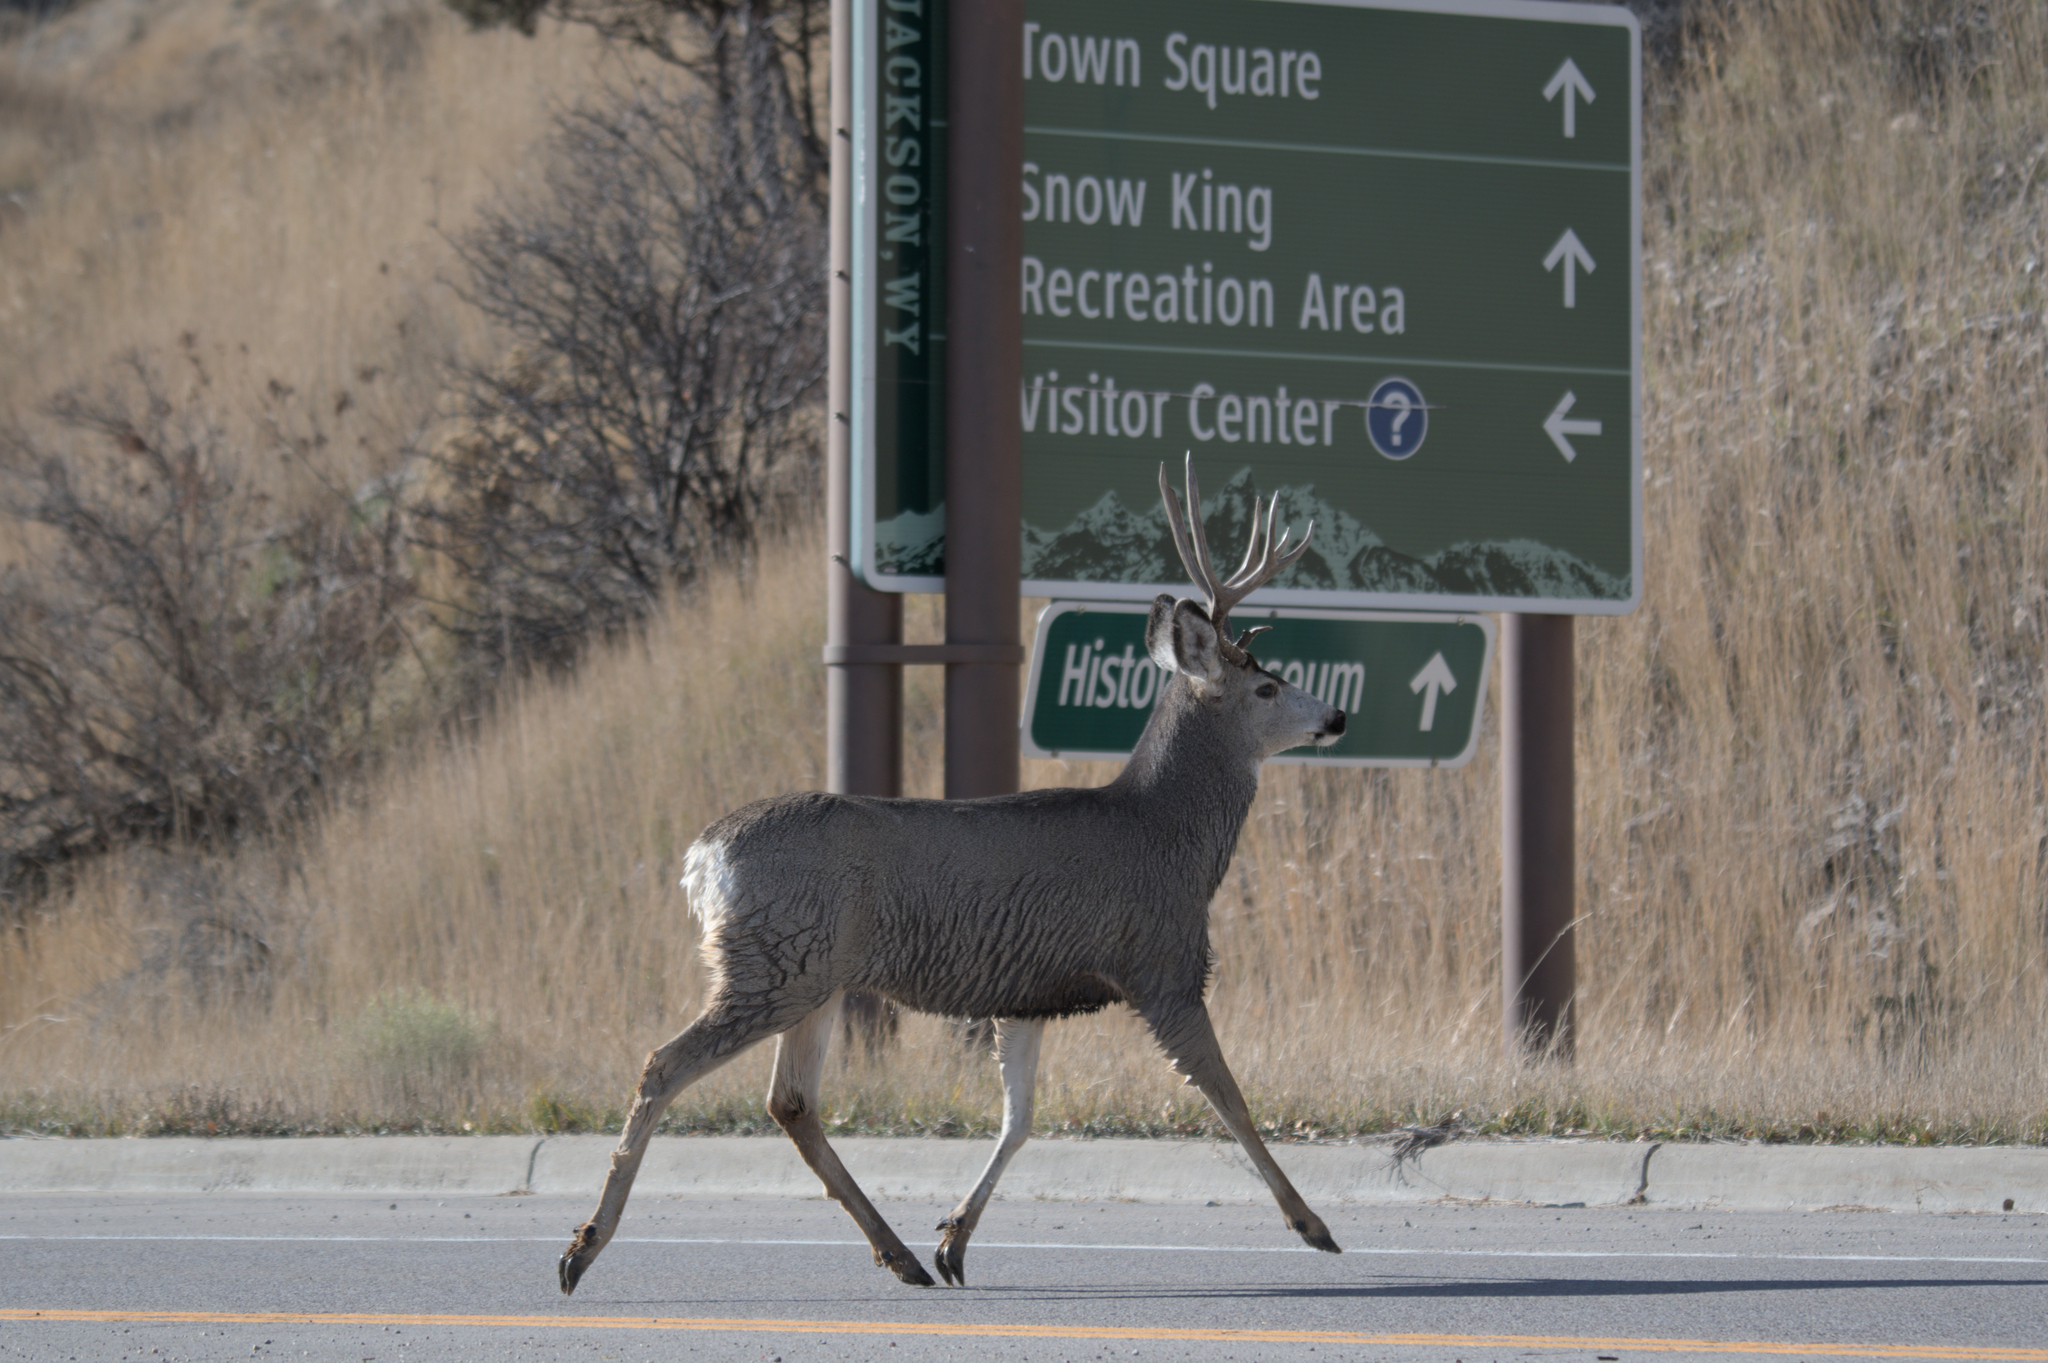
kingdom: Animalia
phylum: Chordata
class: Mammalia
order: Artiodactyla
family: Cervidae
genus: Odocoileus
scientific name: Odocoileus hemionus
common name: Mule deer
